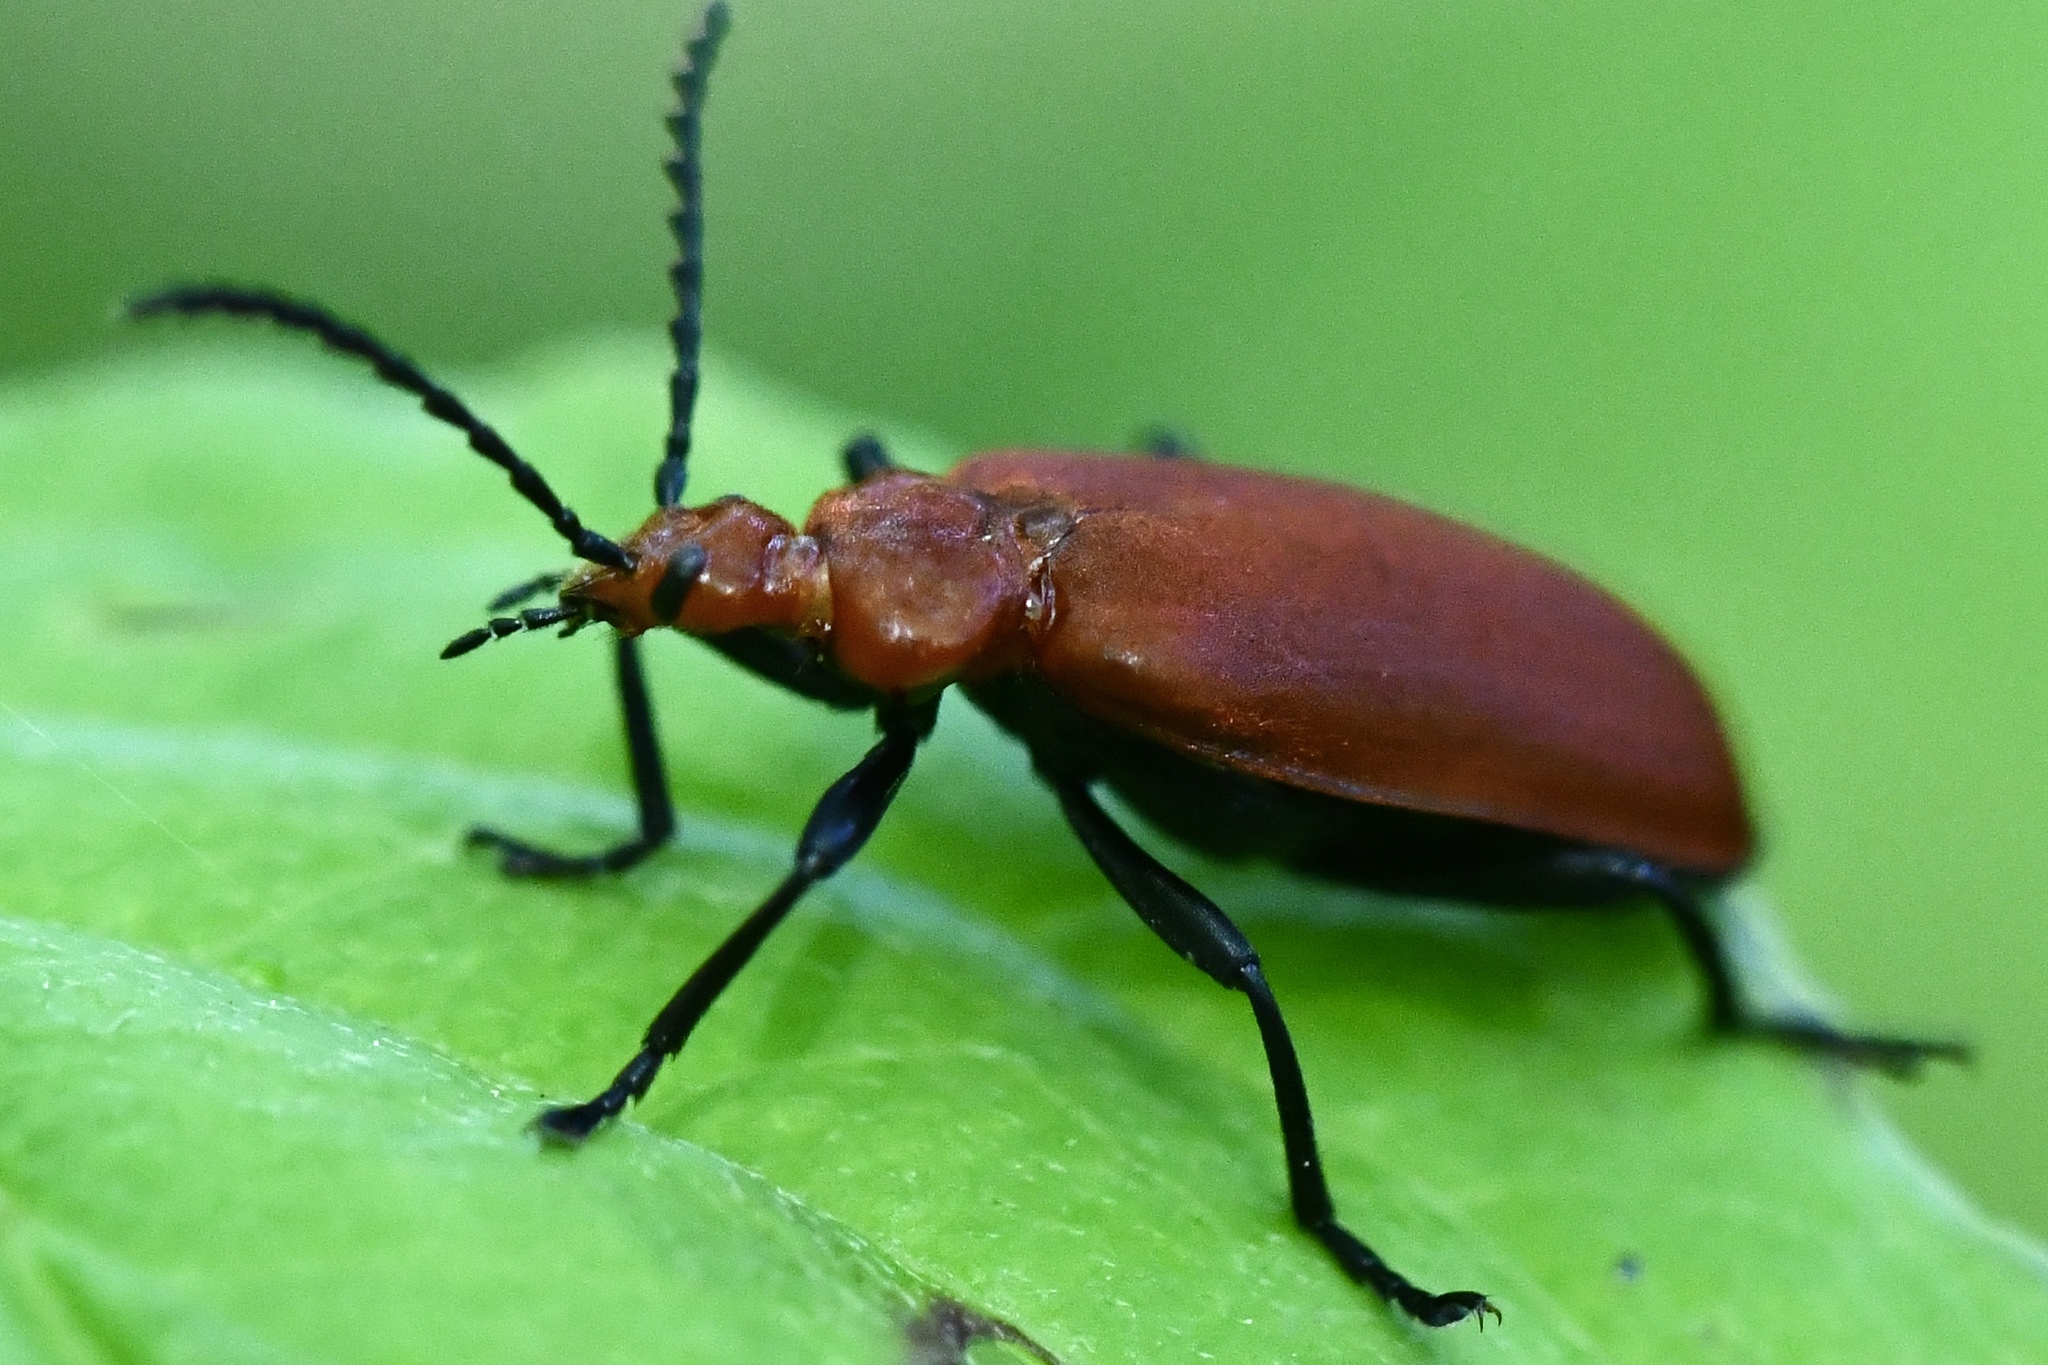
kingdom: Animalia
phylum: Arthropoda
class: Insecta
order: Coleoptera
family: Pyrochroidae
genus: Pyrochroa
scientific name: Pyrochroa serraticornis
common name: Red-headed cardinal beetle
